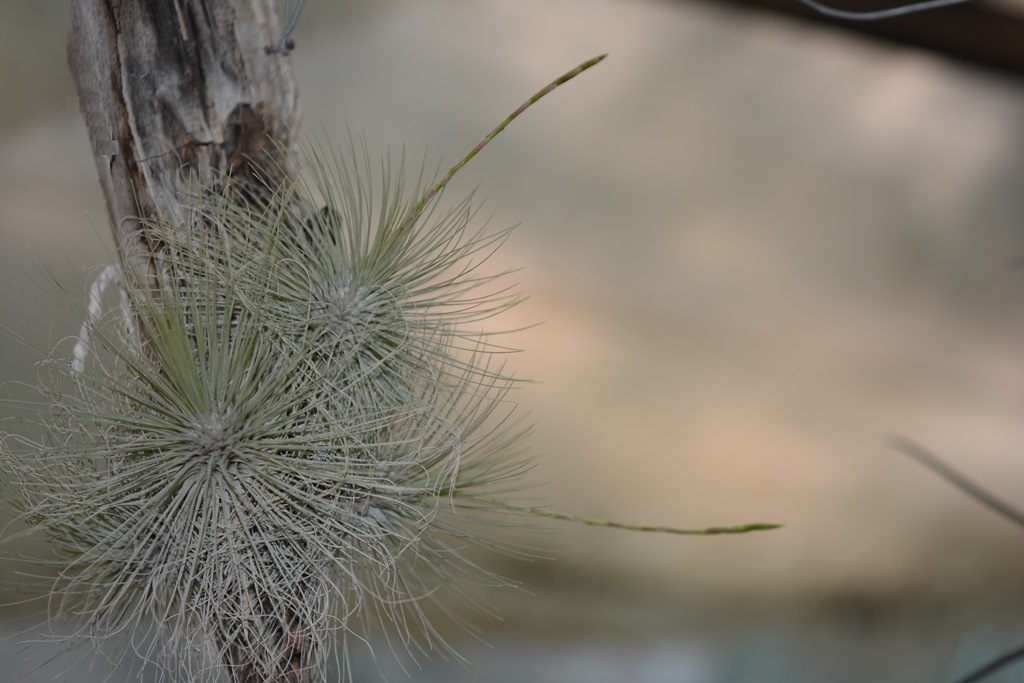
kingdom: Plantae
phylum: Tracheophyta
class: Liliopsida
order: Poales
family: Bromeliaceae
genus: Tillandsia
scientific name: Tillandsia fuchsii
